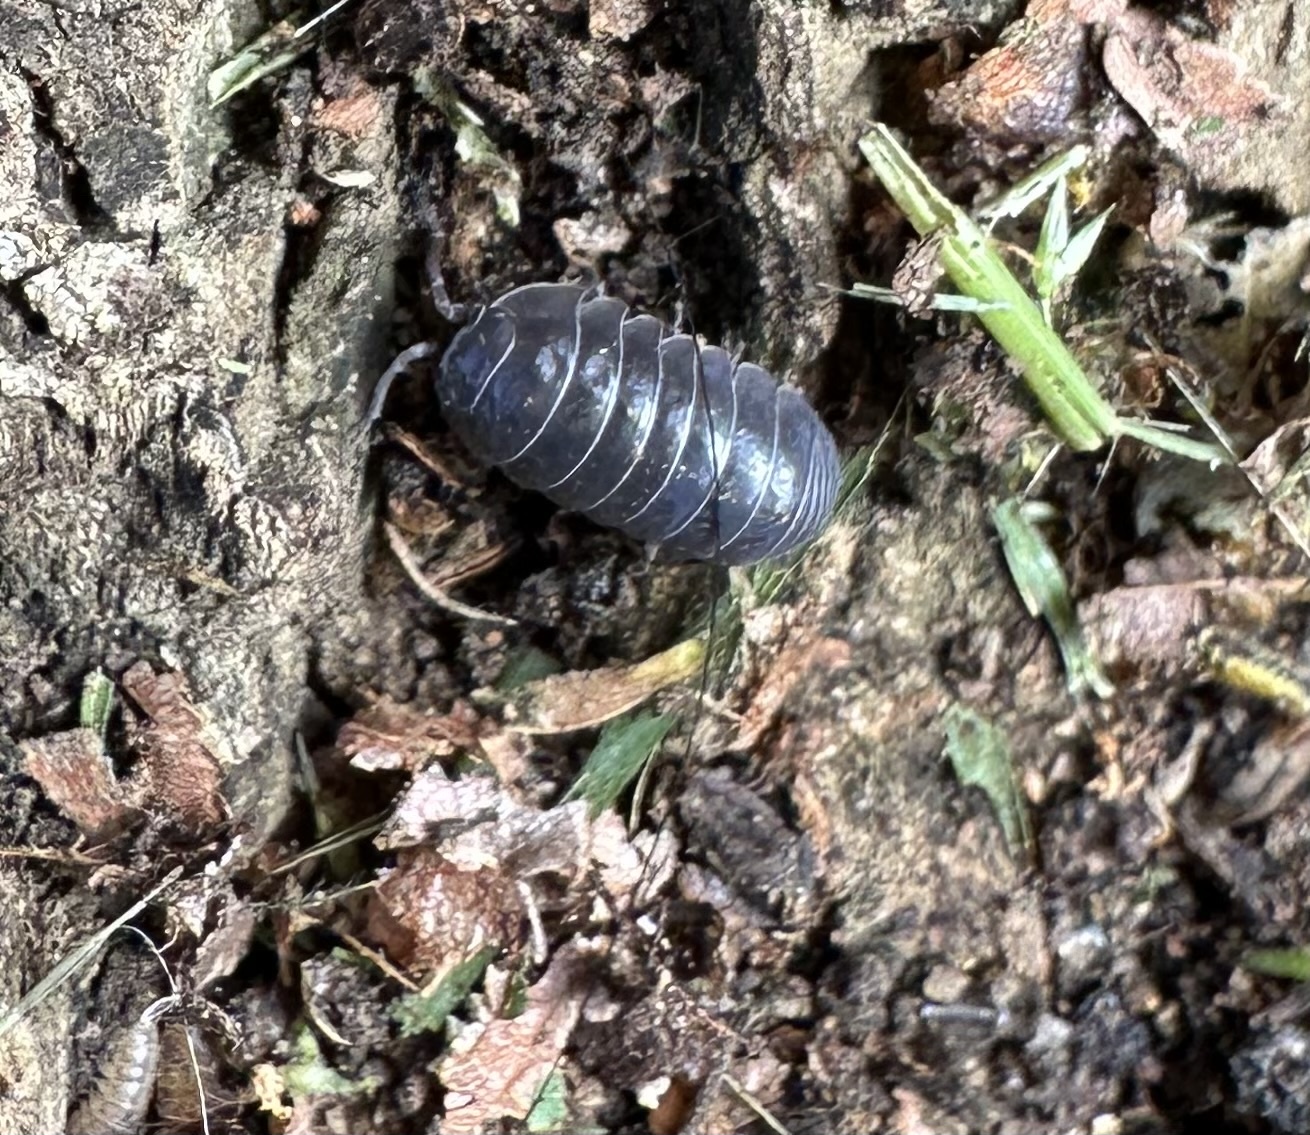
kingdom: Animalia
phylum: Arthropoda
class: Malacostraca
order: Isopoda
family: Armadillidiidae
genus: Armadillidium
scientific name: Armadillidium vulgare
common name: Common pill woodlouse
